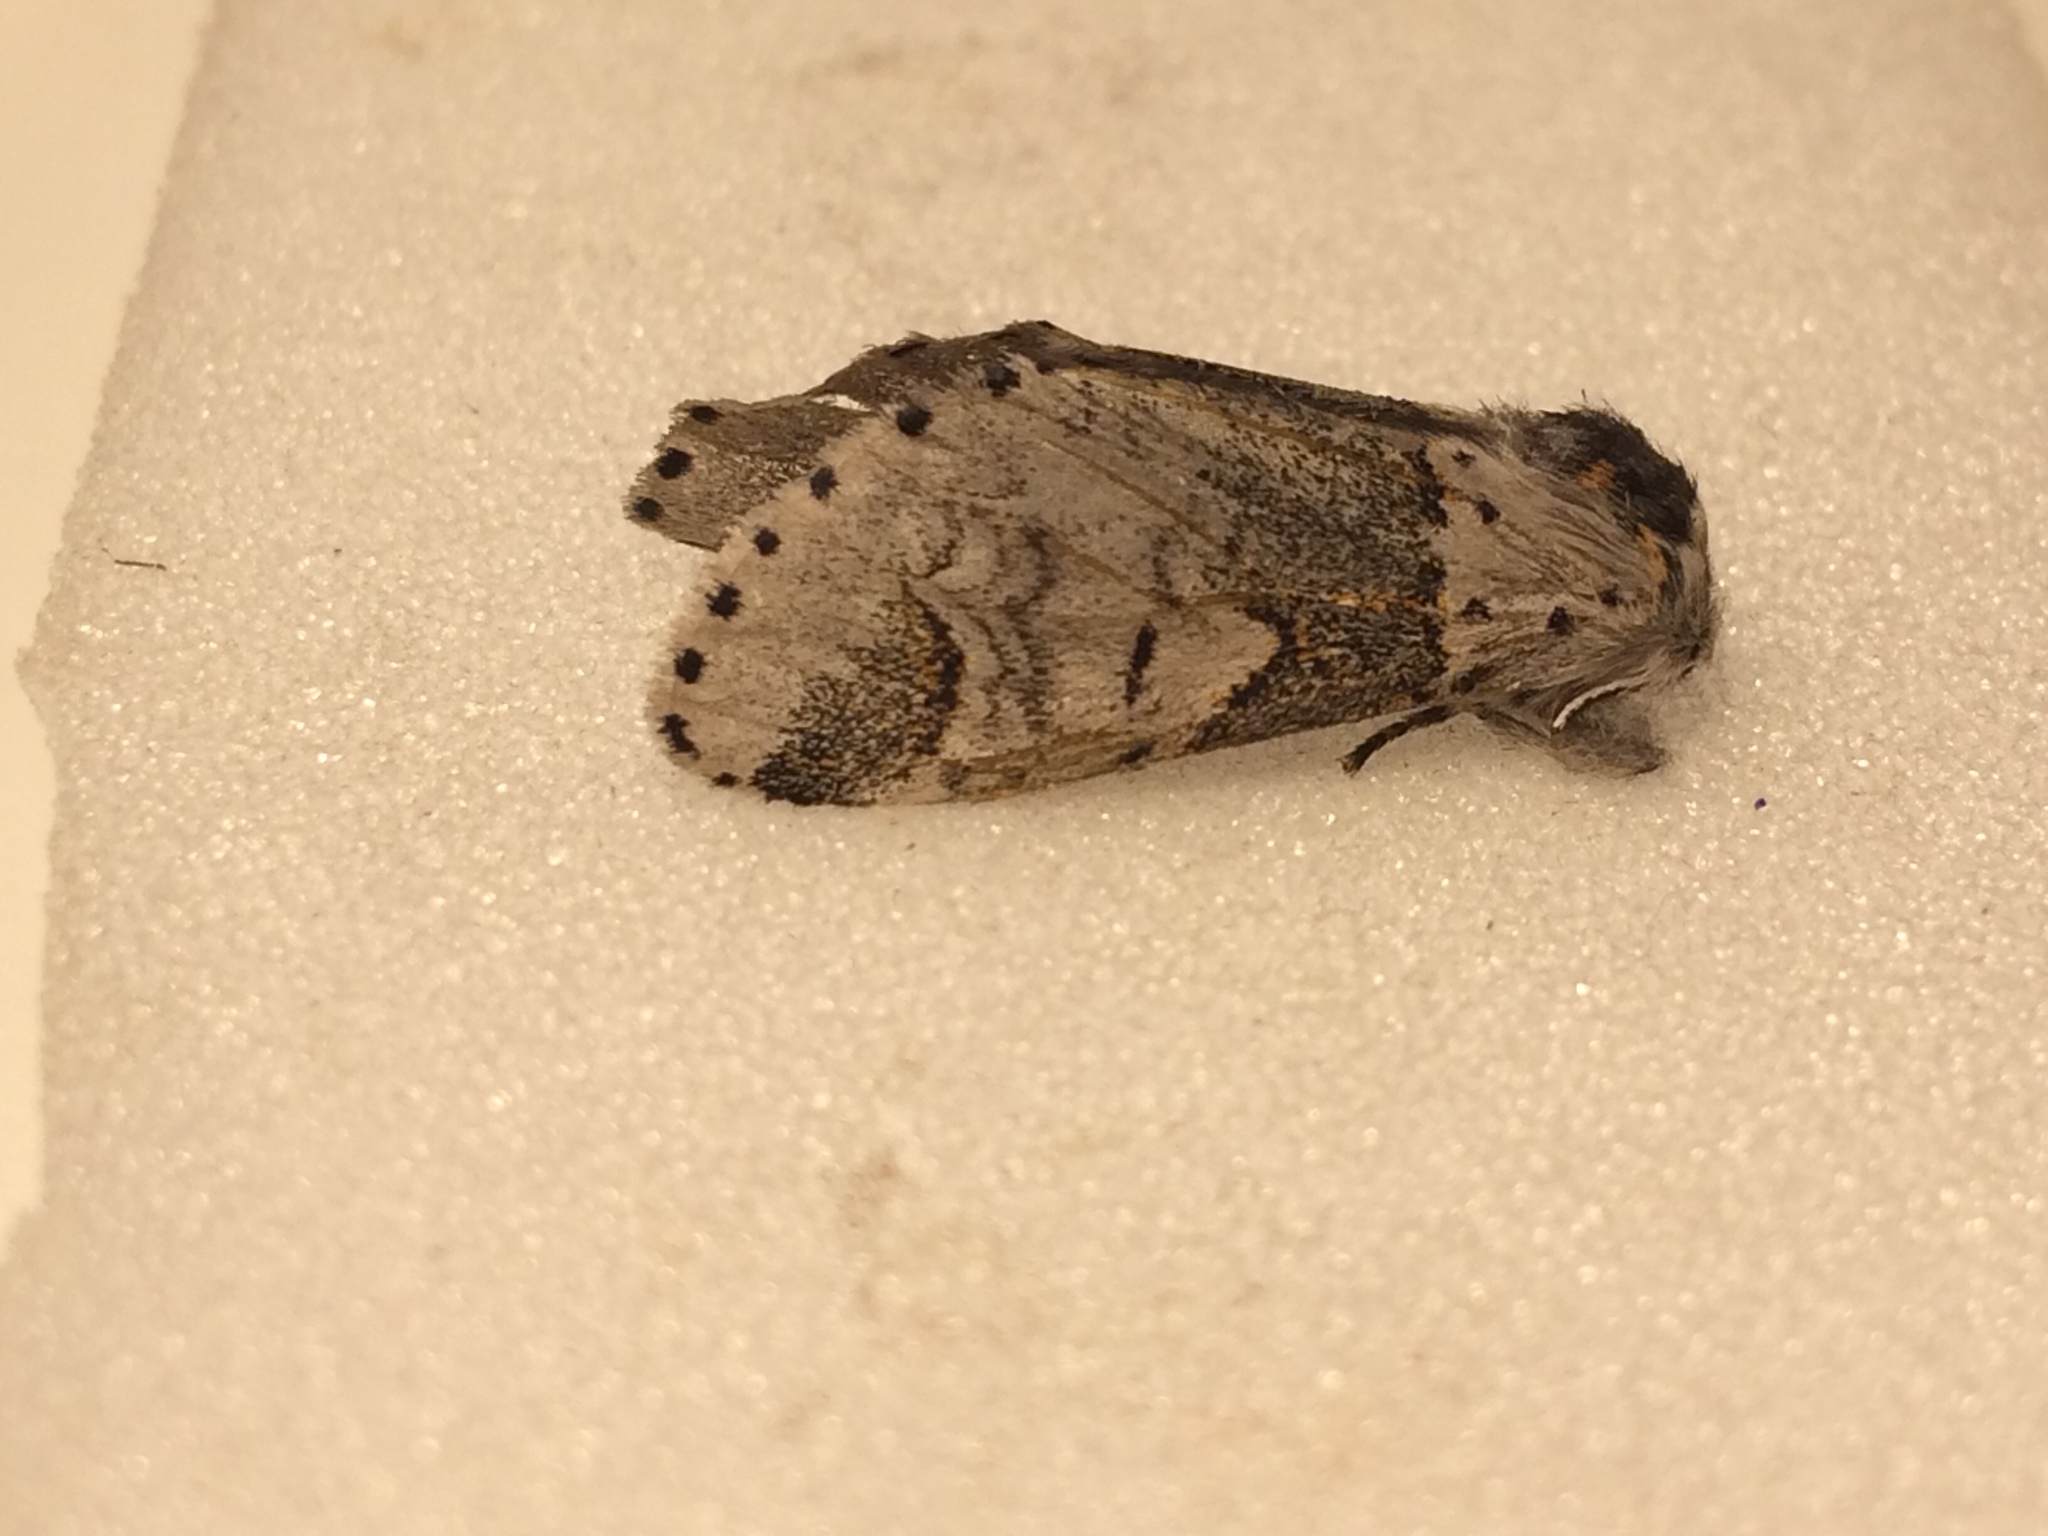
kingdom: Animalia
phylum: Arthropoda
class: Insecta
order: Lepidoptera
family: Notodontidae
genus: Furcula
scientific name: Furcula furcula
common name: Sallow kitten
